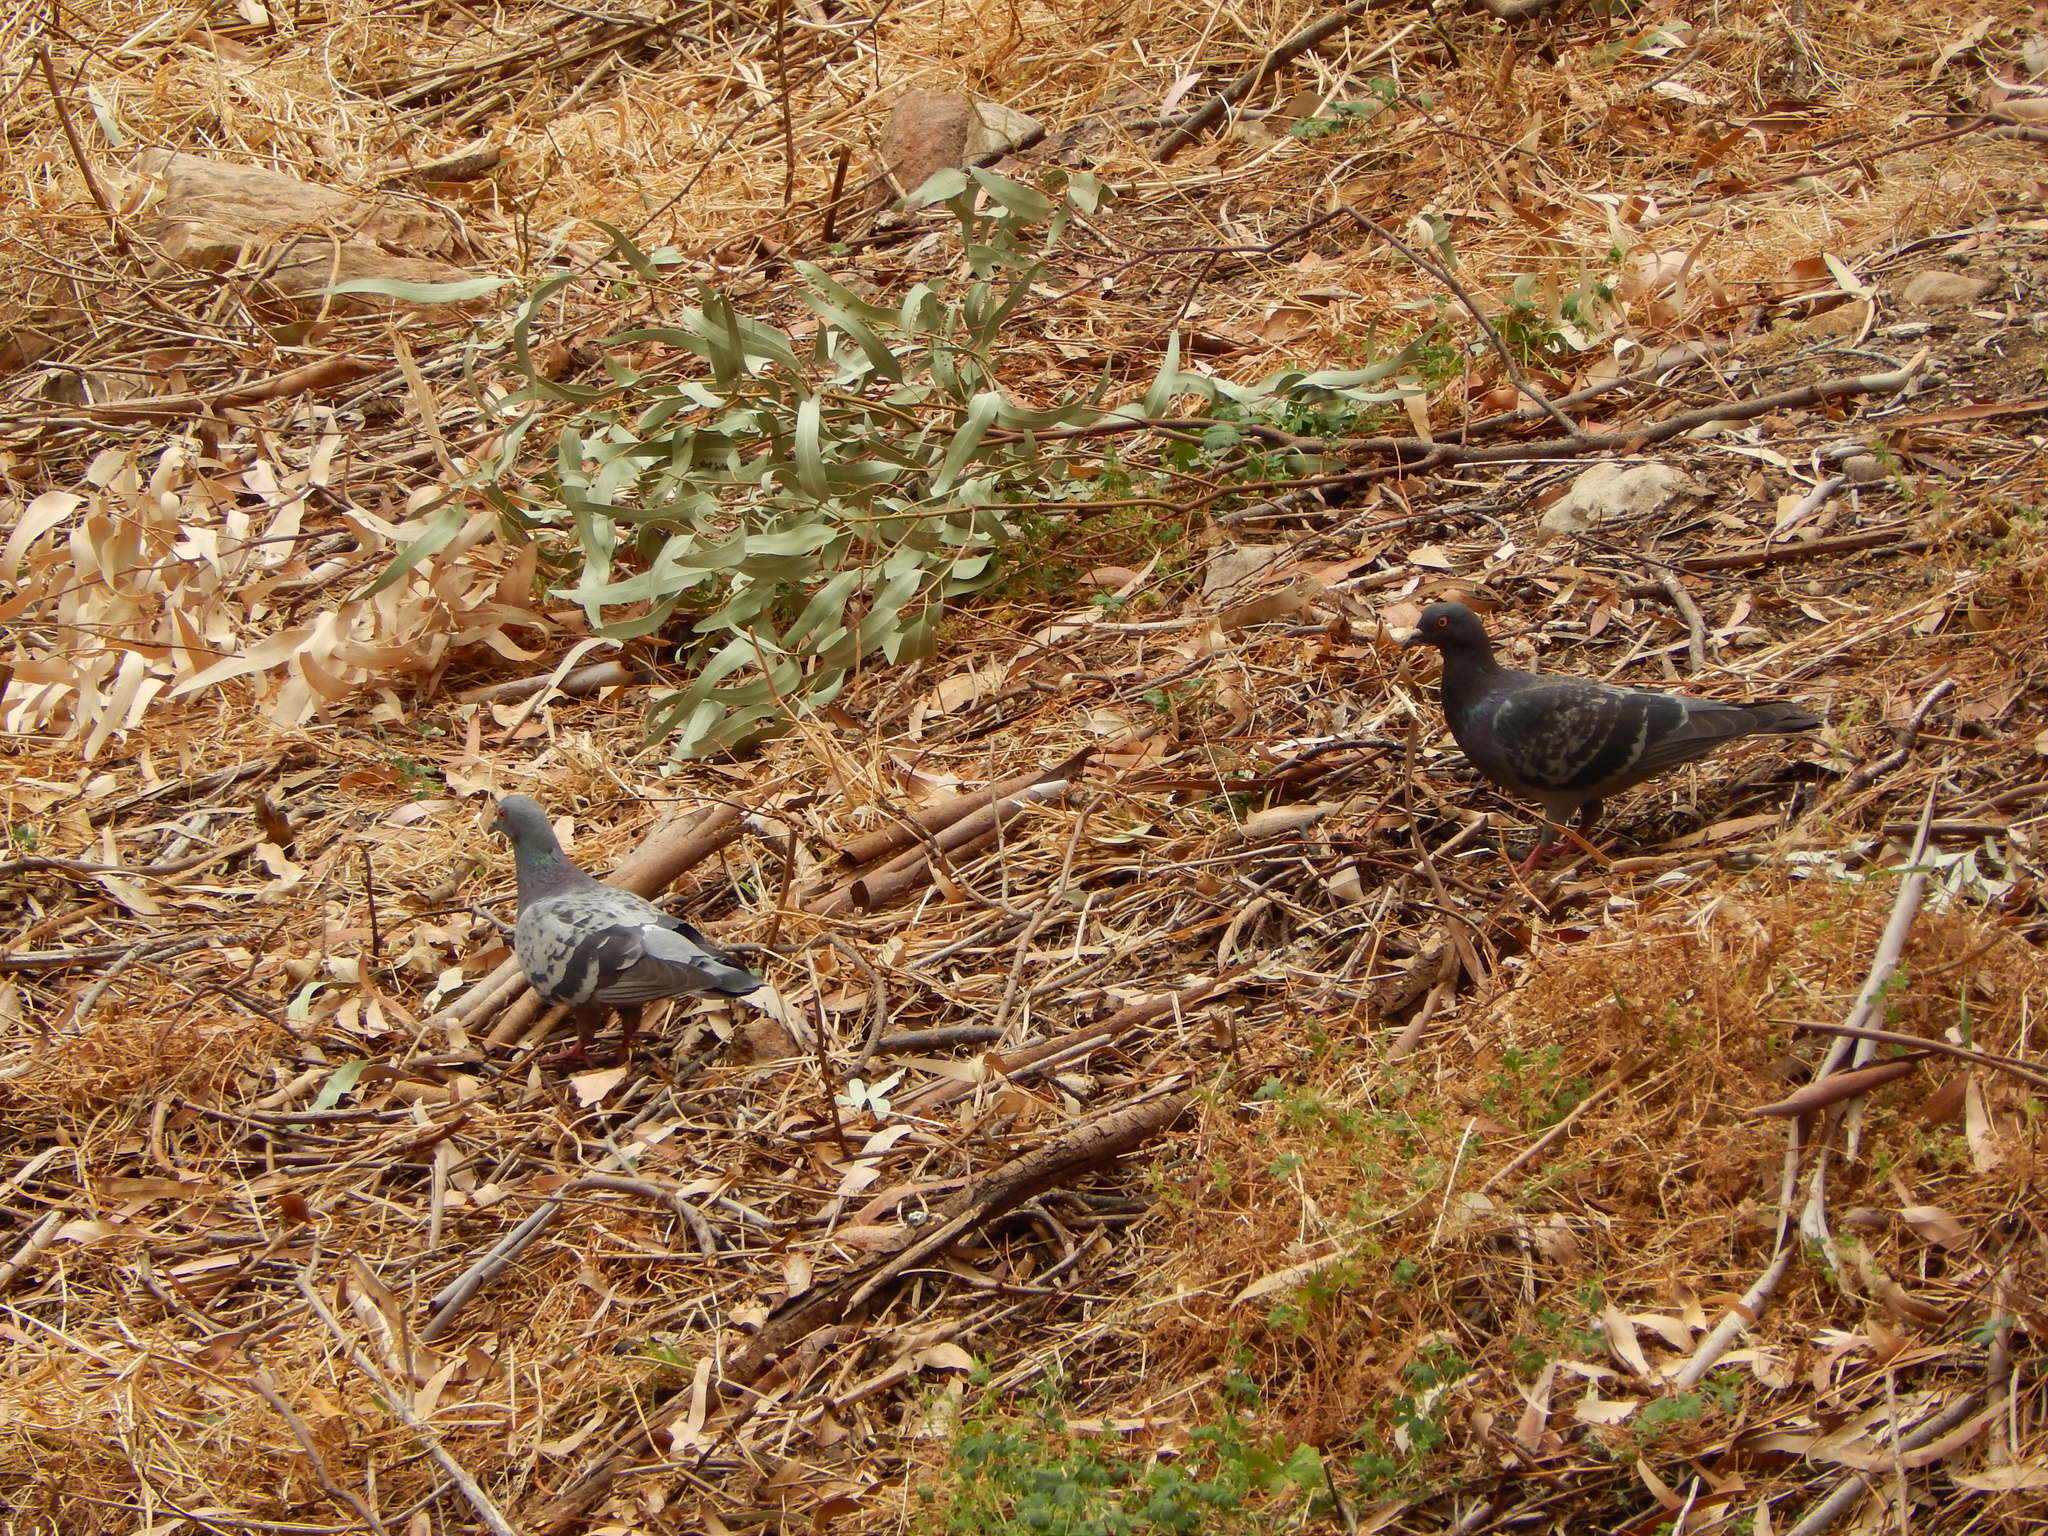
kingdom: Animalia
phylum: Chordata
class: Aves
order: Columbiformes
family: Columbidae
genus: Columba
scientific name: Columba livia
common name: Rock pigeon
